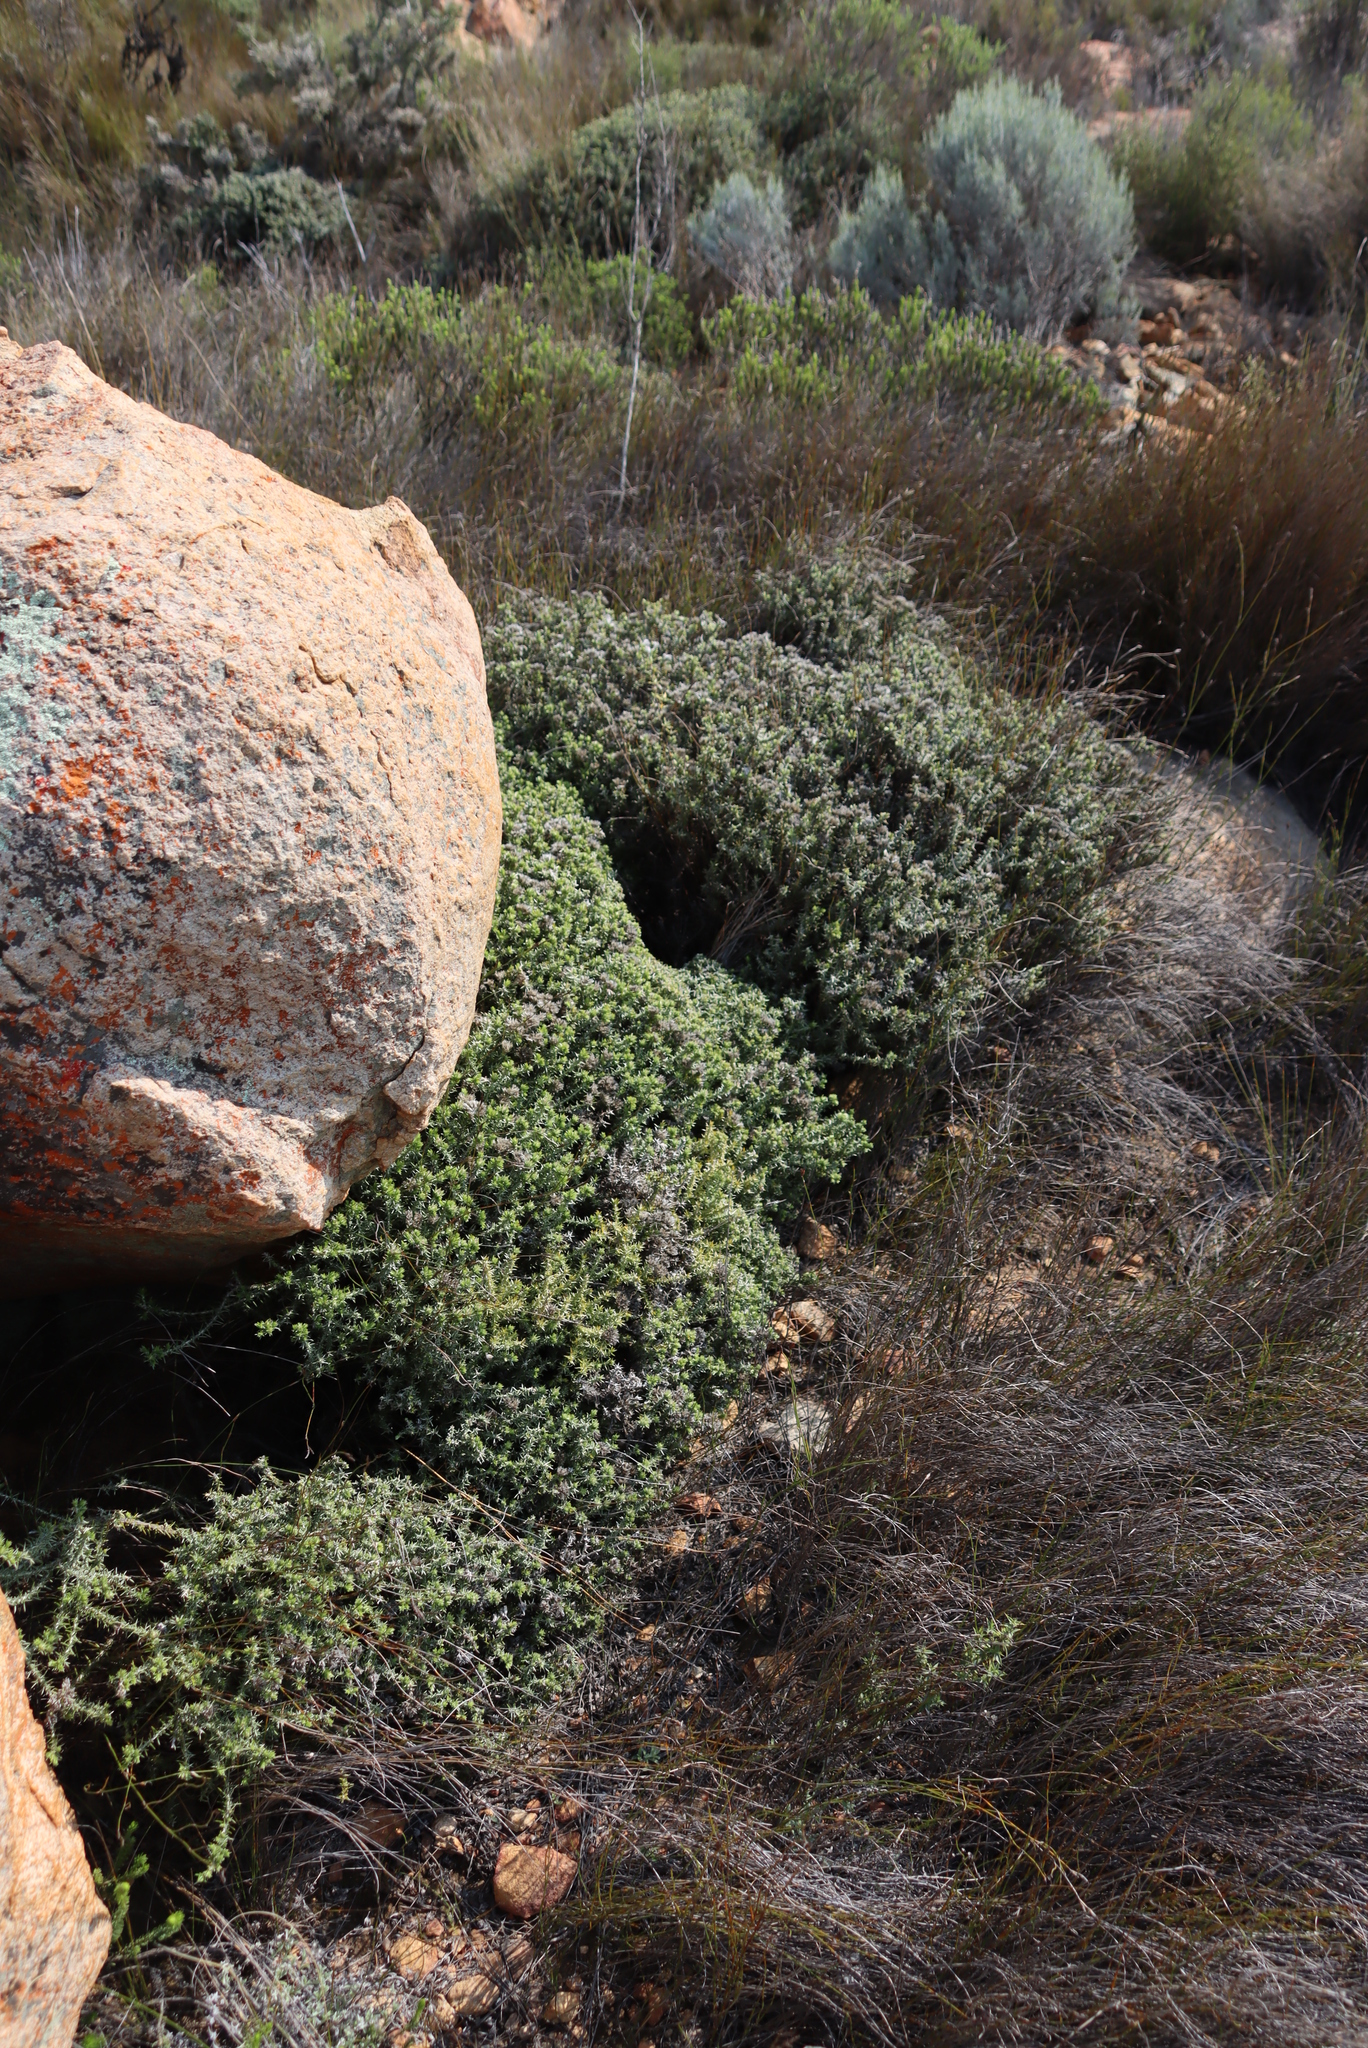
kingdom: Plantae
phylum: Tracheophyta
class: Magnoliopsida
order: Asterales
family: Asteraceae
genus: Metalasia
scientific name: Metalasia namaquana
